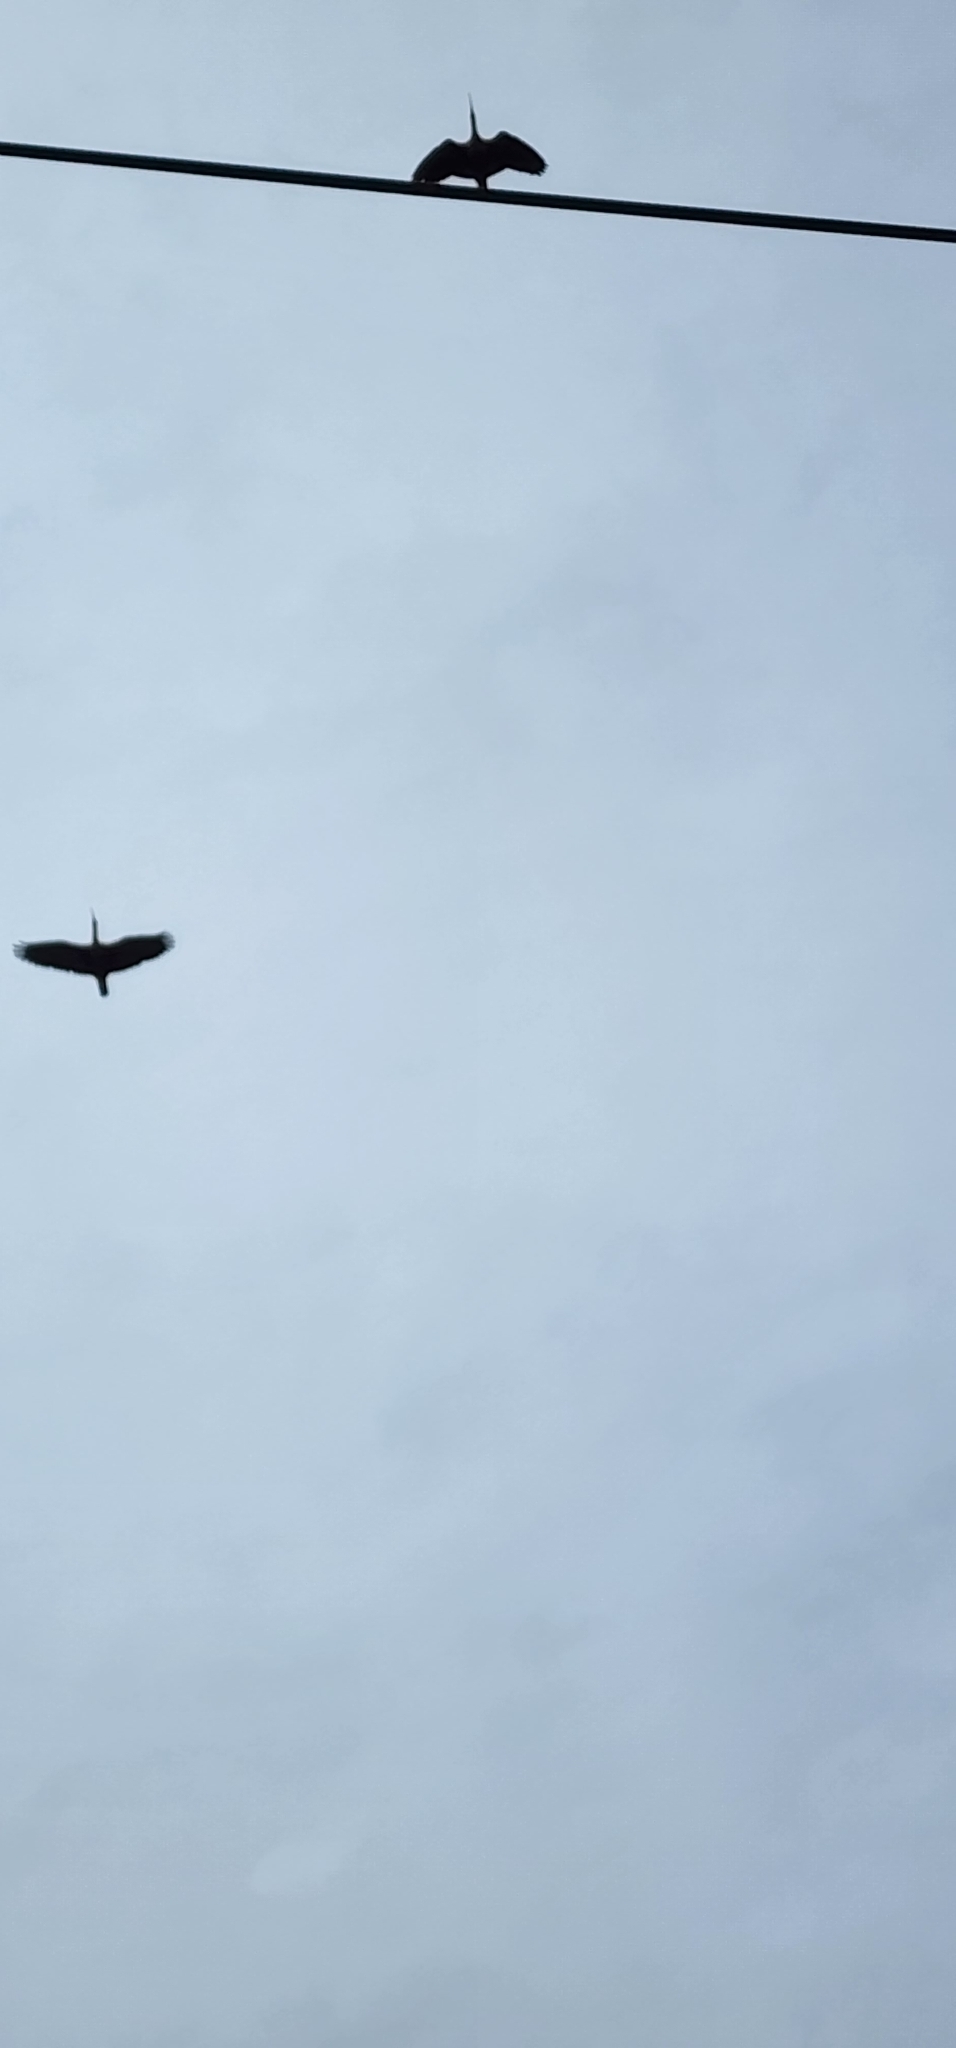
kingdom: Animalia
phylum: Chordata
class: Aves
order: Pelecaniformes
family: Threskiornithidae
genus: Theristicus
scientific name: Theristicus caudatus
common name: Buff-necked ibis
